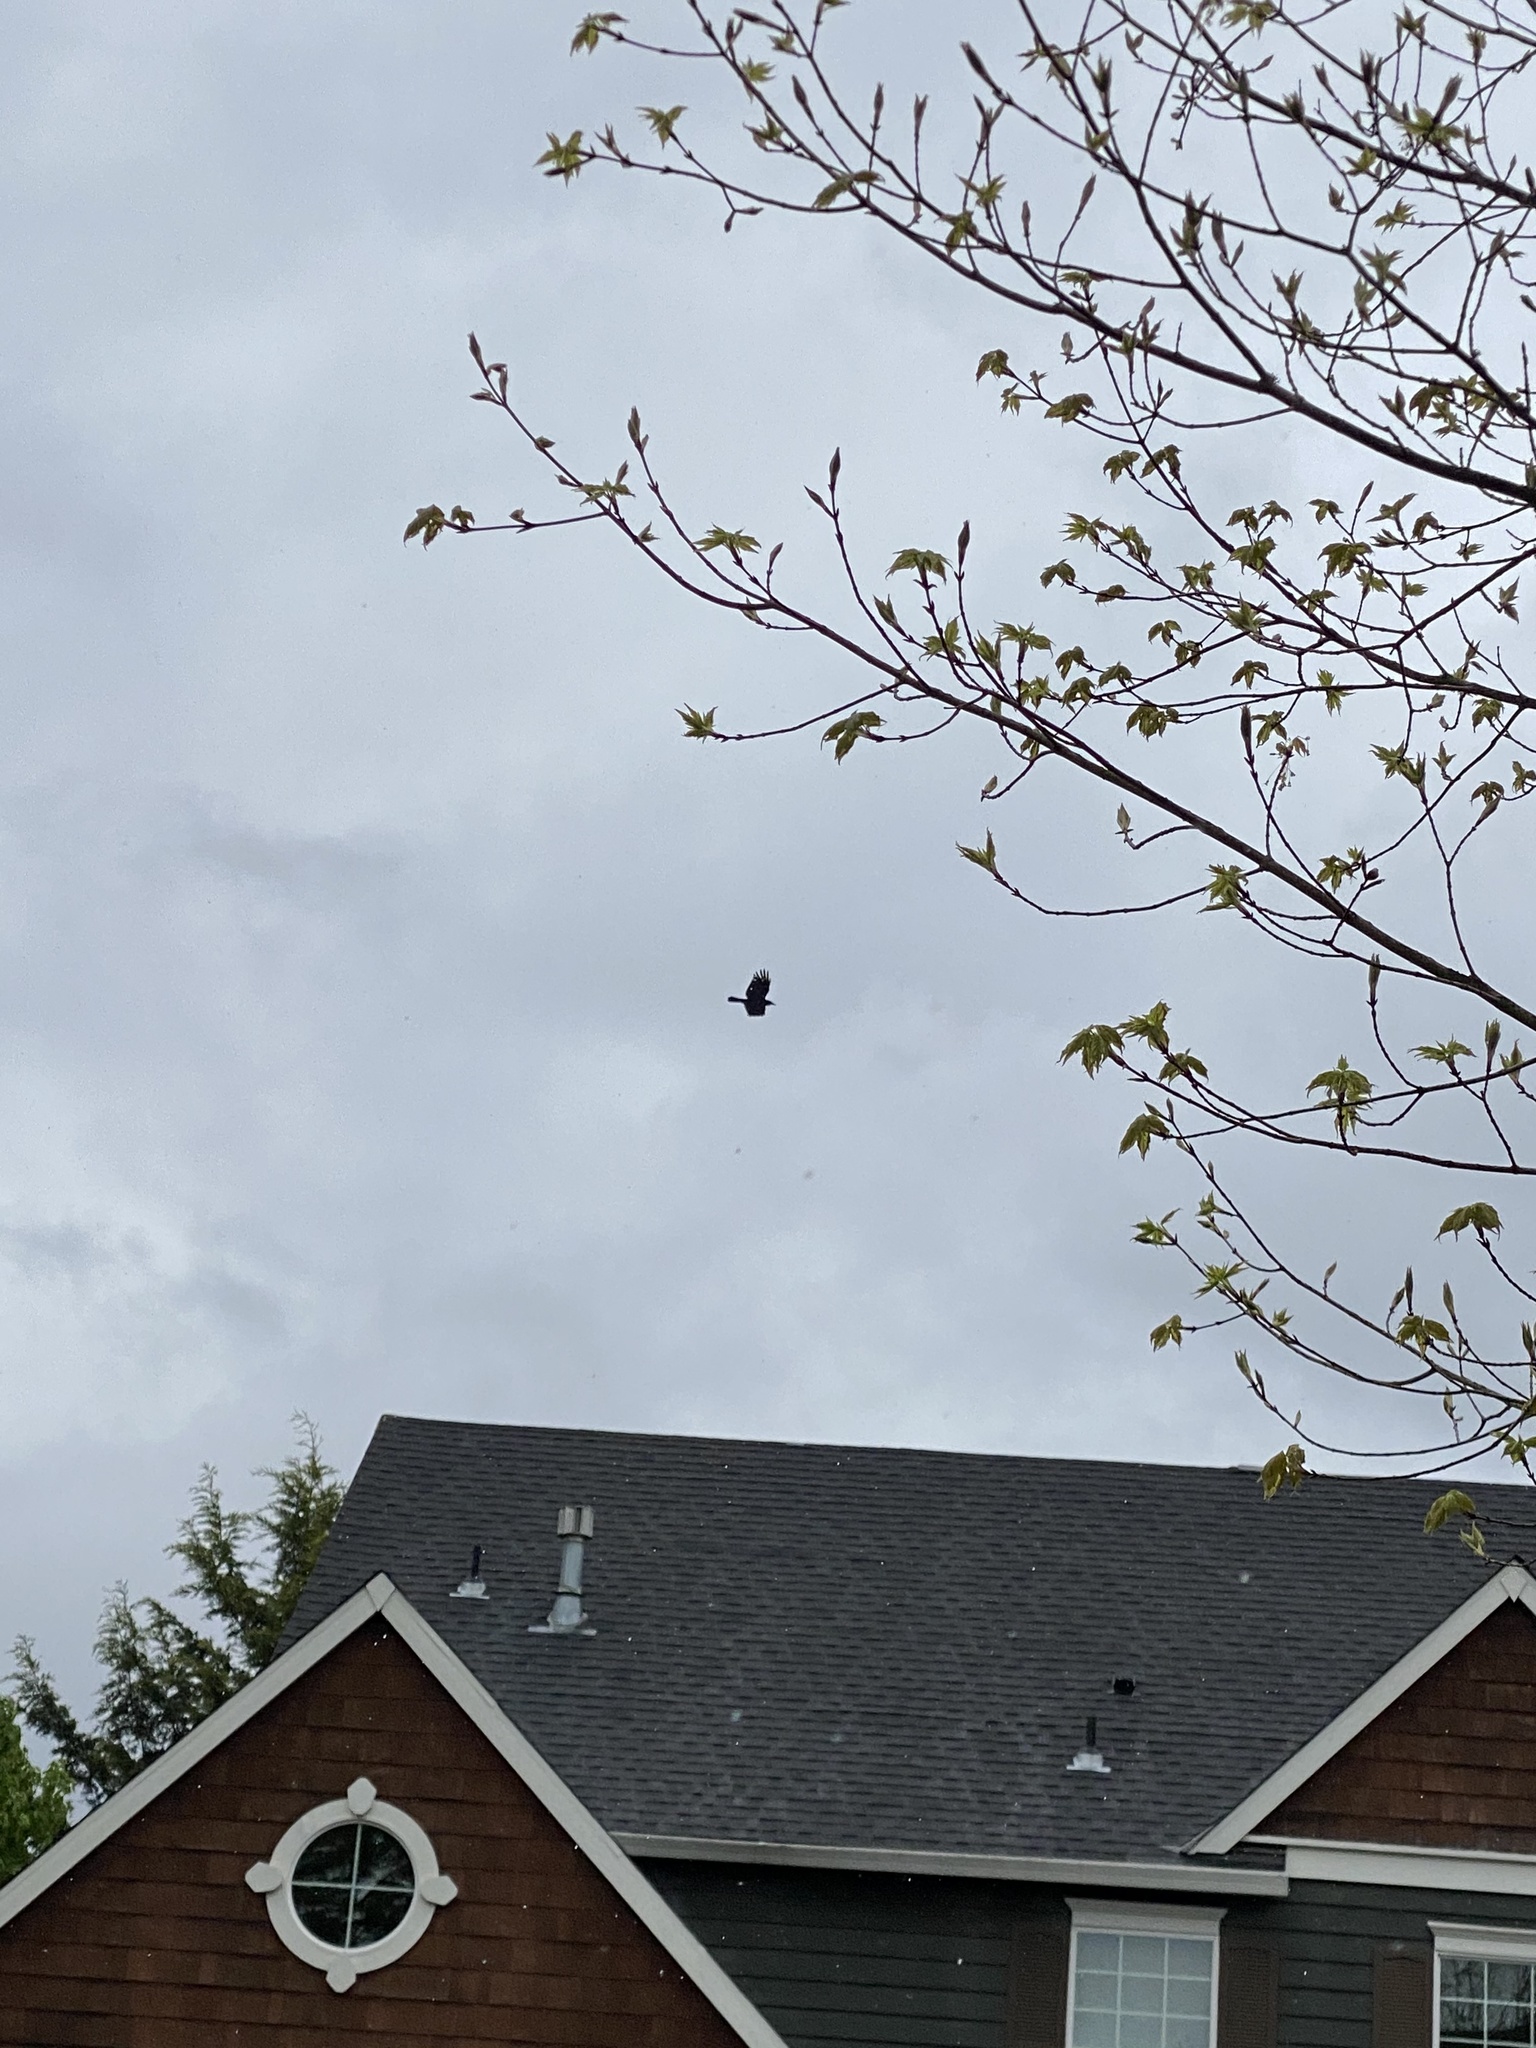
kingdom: Animalia
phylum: Chordata
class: Aves
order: Passeriformes
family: Corvidae
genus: Corvus
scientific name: Corvus brachyrhynchos
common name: American crow
